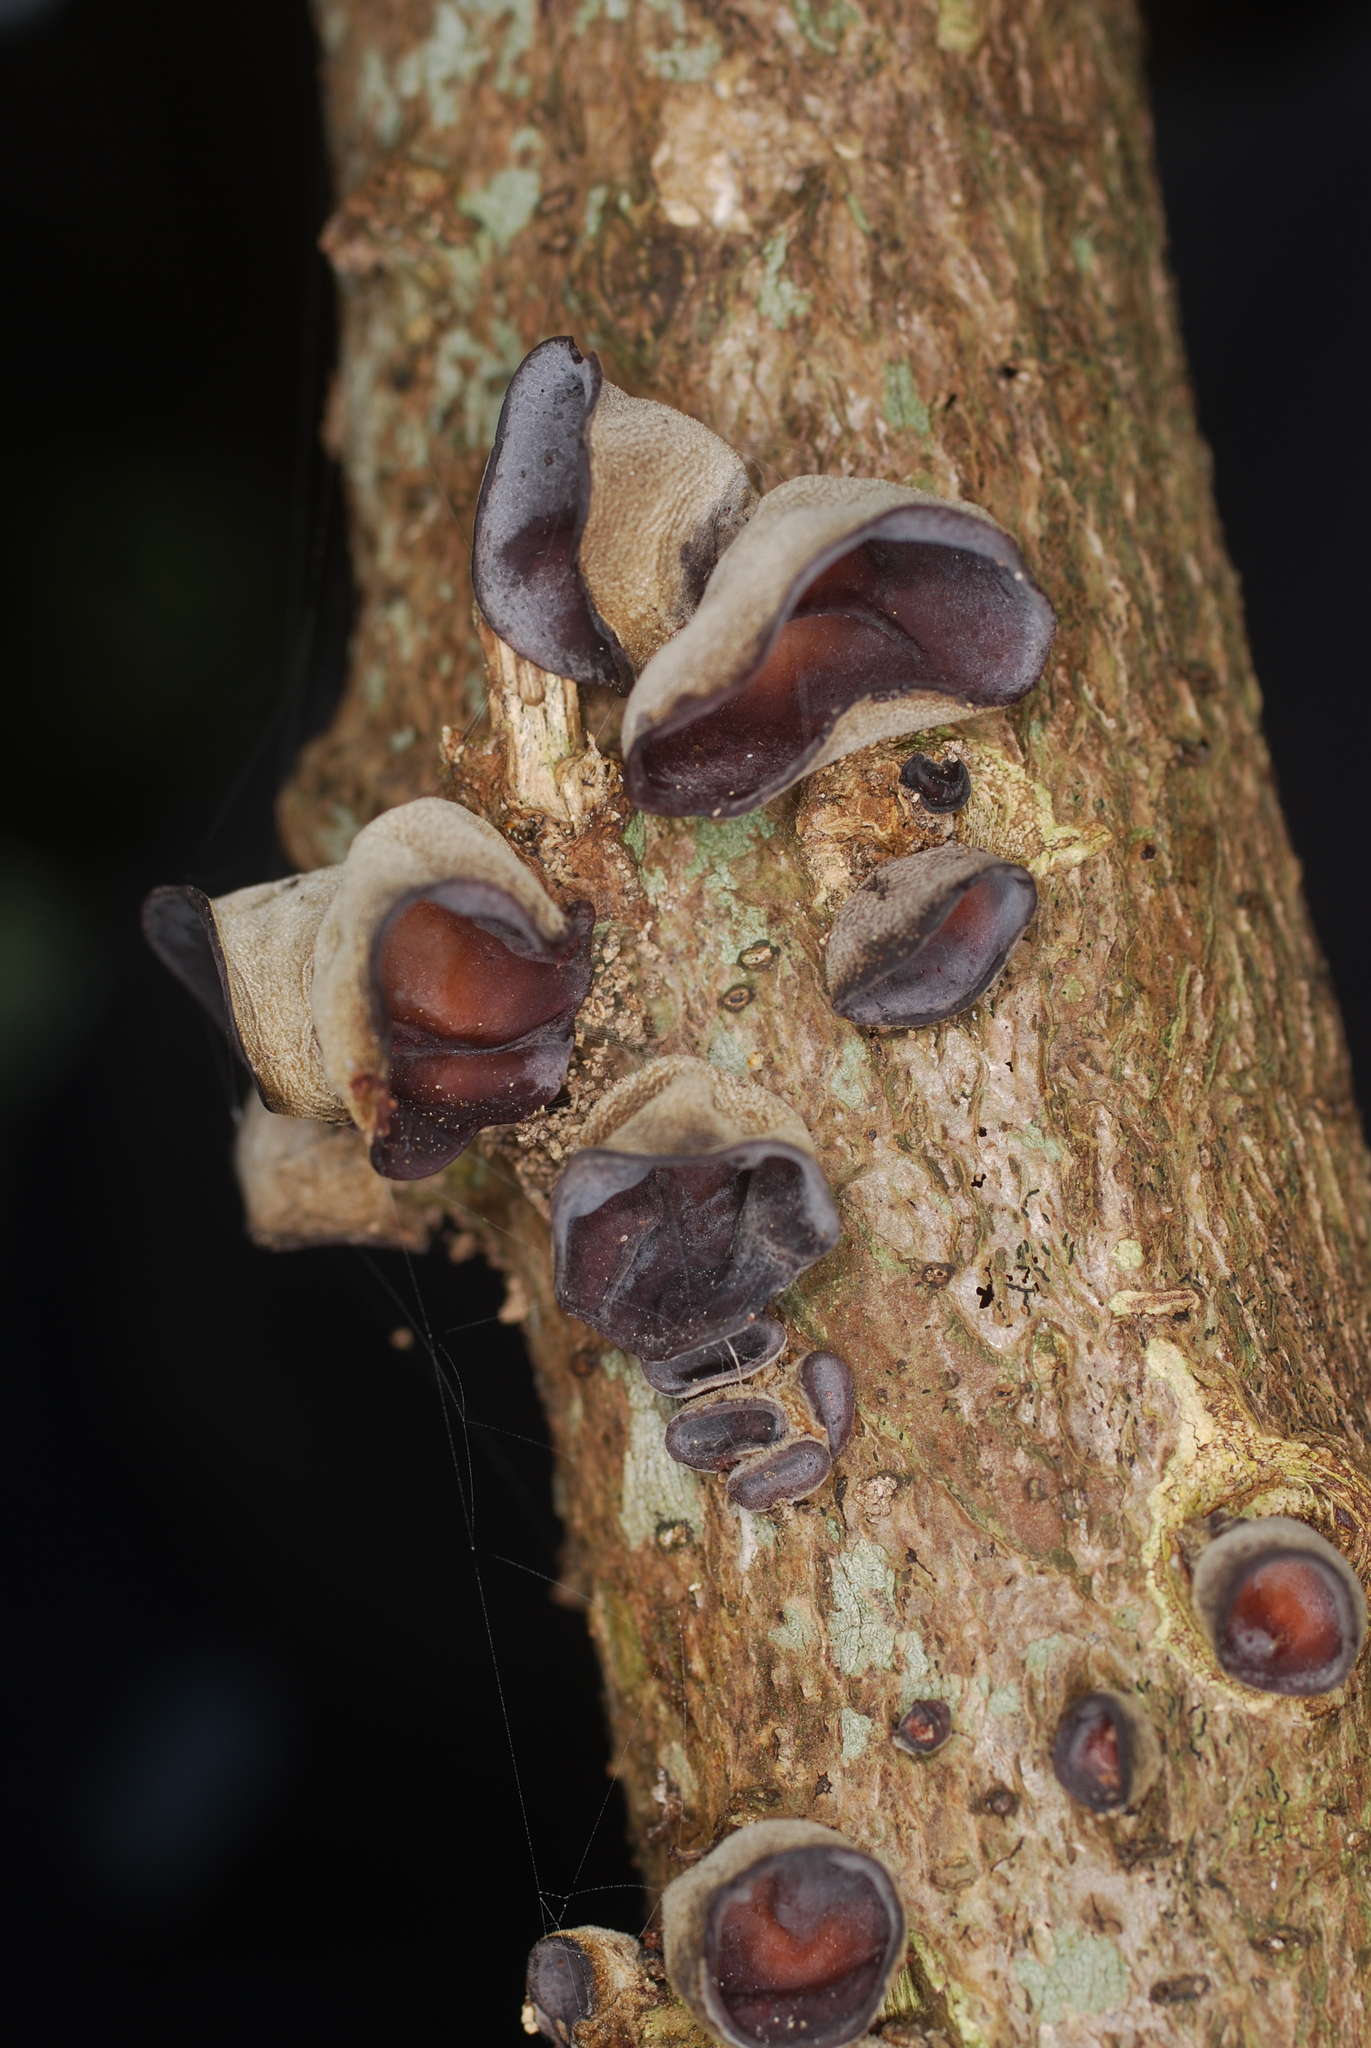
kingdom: Fungi
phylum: Basidiomycota
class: Agaricomycetes
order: Auriculariales
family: Auriculariaceae
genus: Auricularia
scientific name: Auricularia cornea
